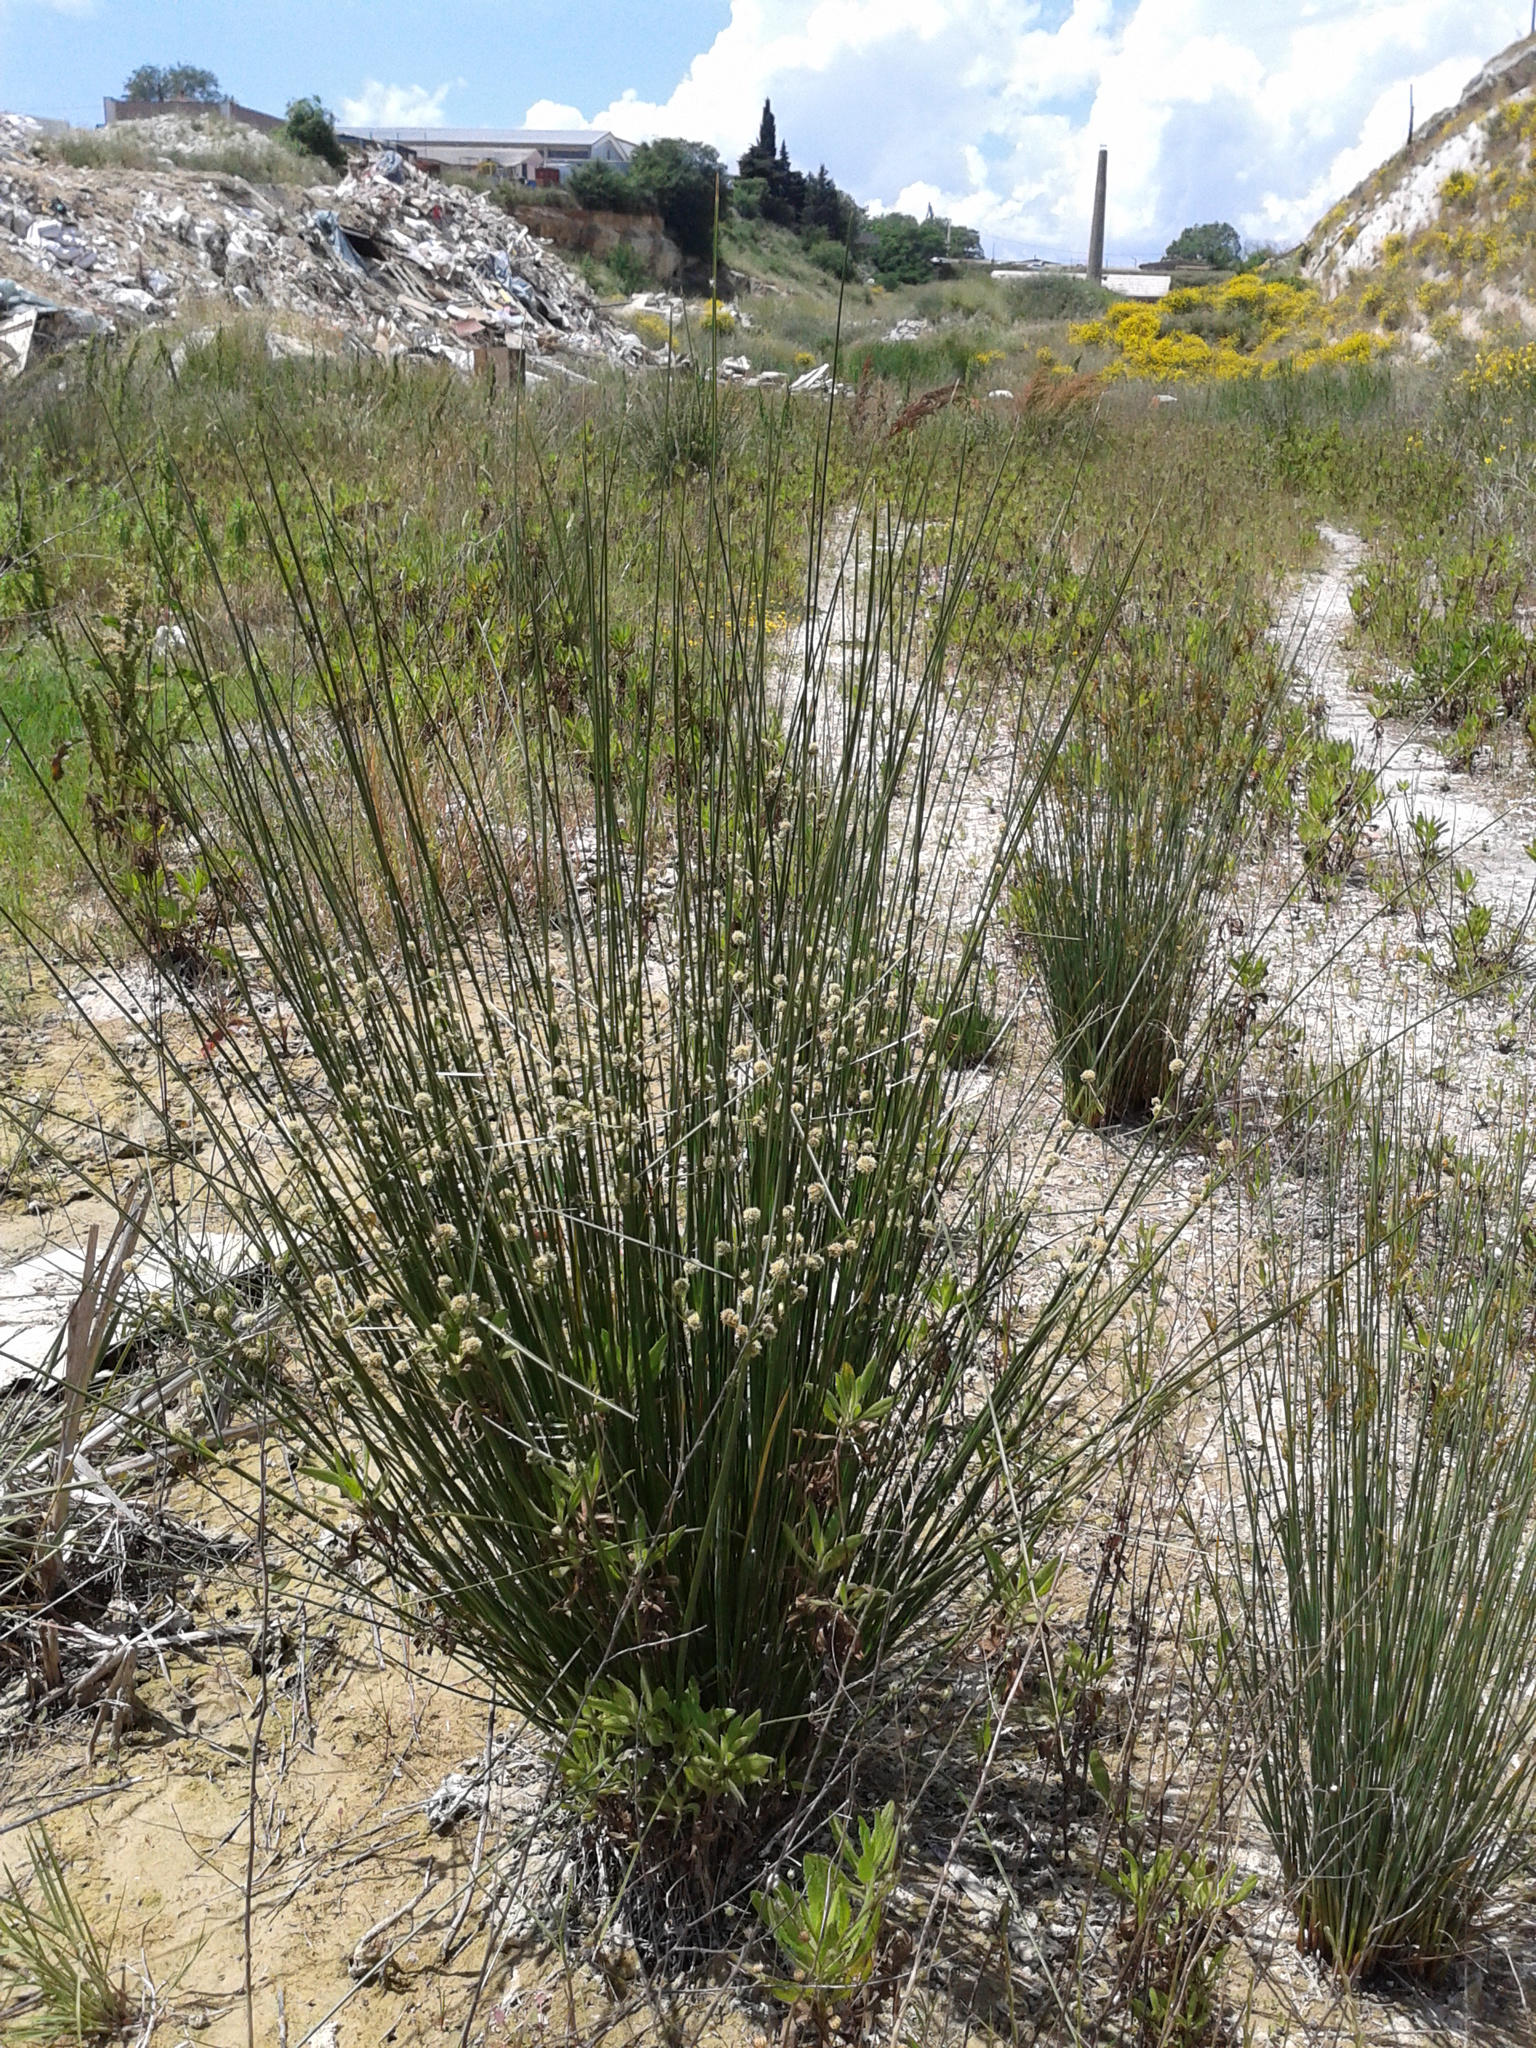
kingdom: Plantae
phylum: Tracheophyta
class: Liliopsida
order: Poales
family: Cyperaceae
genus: Scirpoides
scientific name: Scirpoides holoschoenus
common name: Round-headed club-rush
